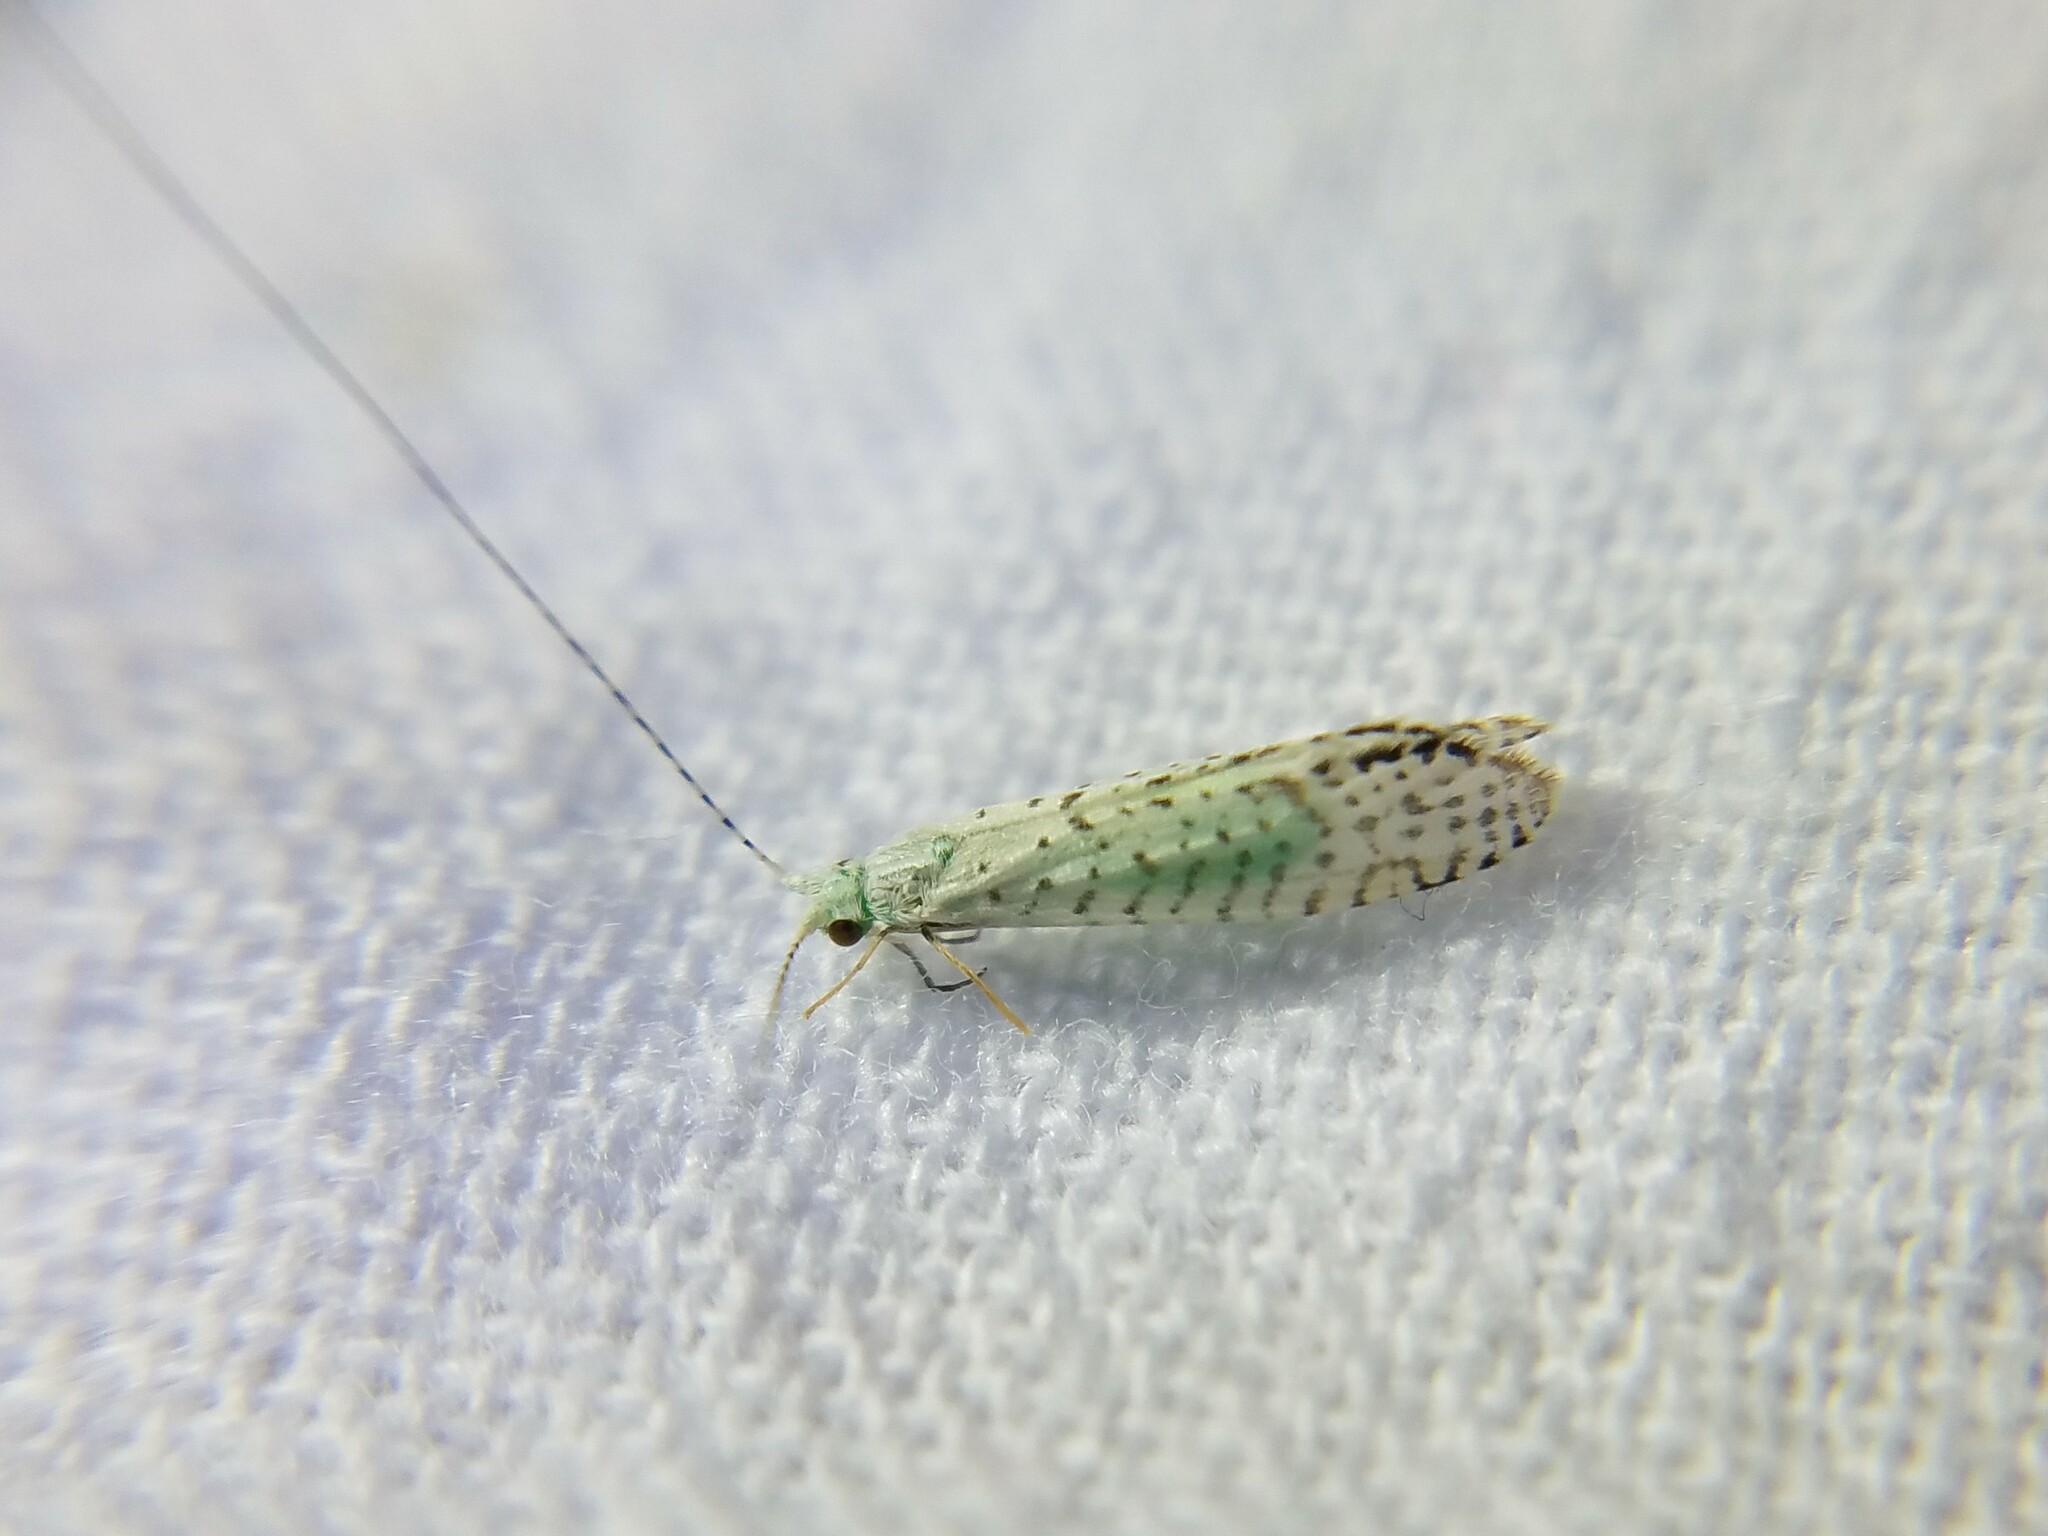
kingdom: Animalia
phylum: Arthropoda
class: Insecta
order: Trichoptera
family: Leptoceridae
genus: Nectopsyche
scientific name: Nectopsyche candida
